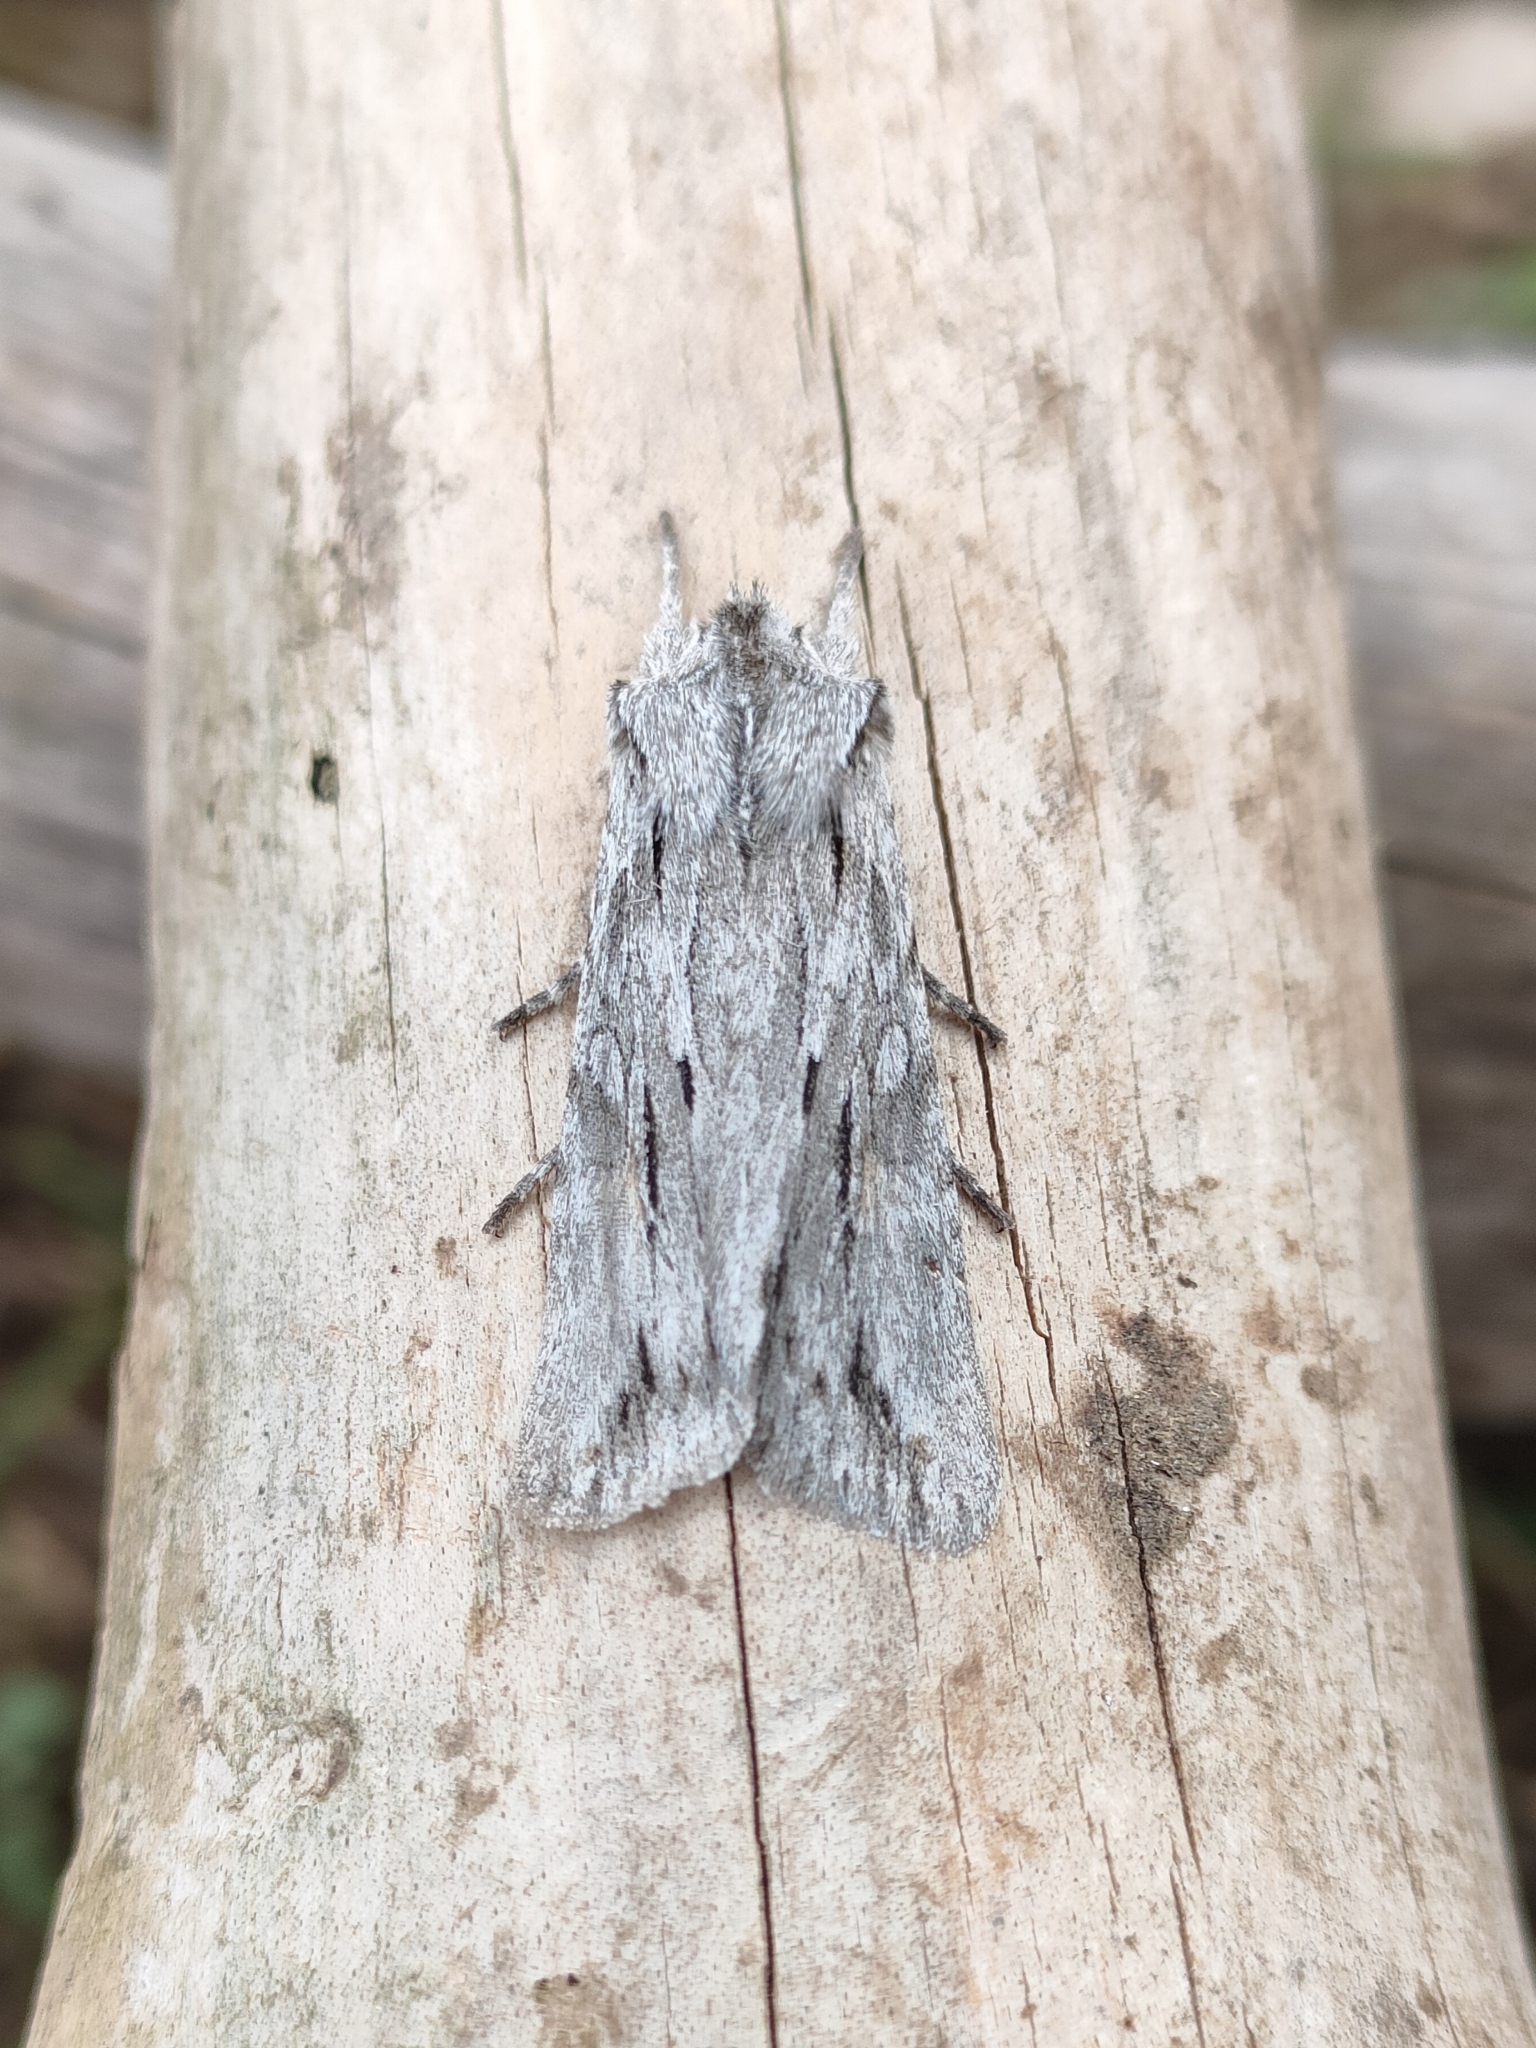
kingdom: Animalia
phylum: Arthropoda
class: Insecta
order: Lepidoptera
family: Noctuidae
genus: Lithophane
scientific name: Lithophane leautieri
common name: Blair's shoulder-knot
